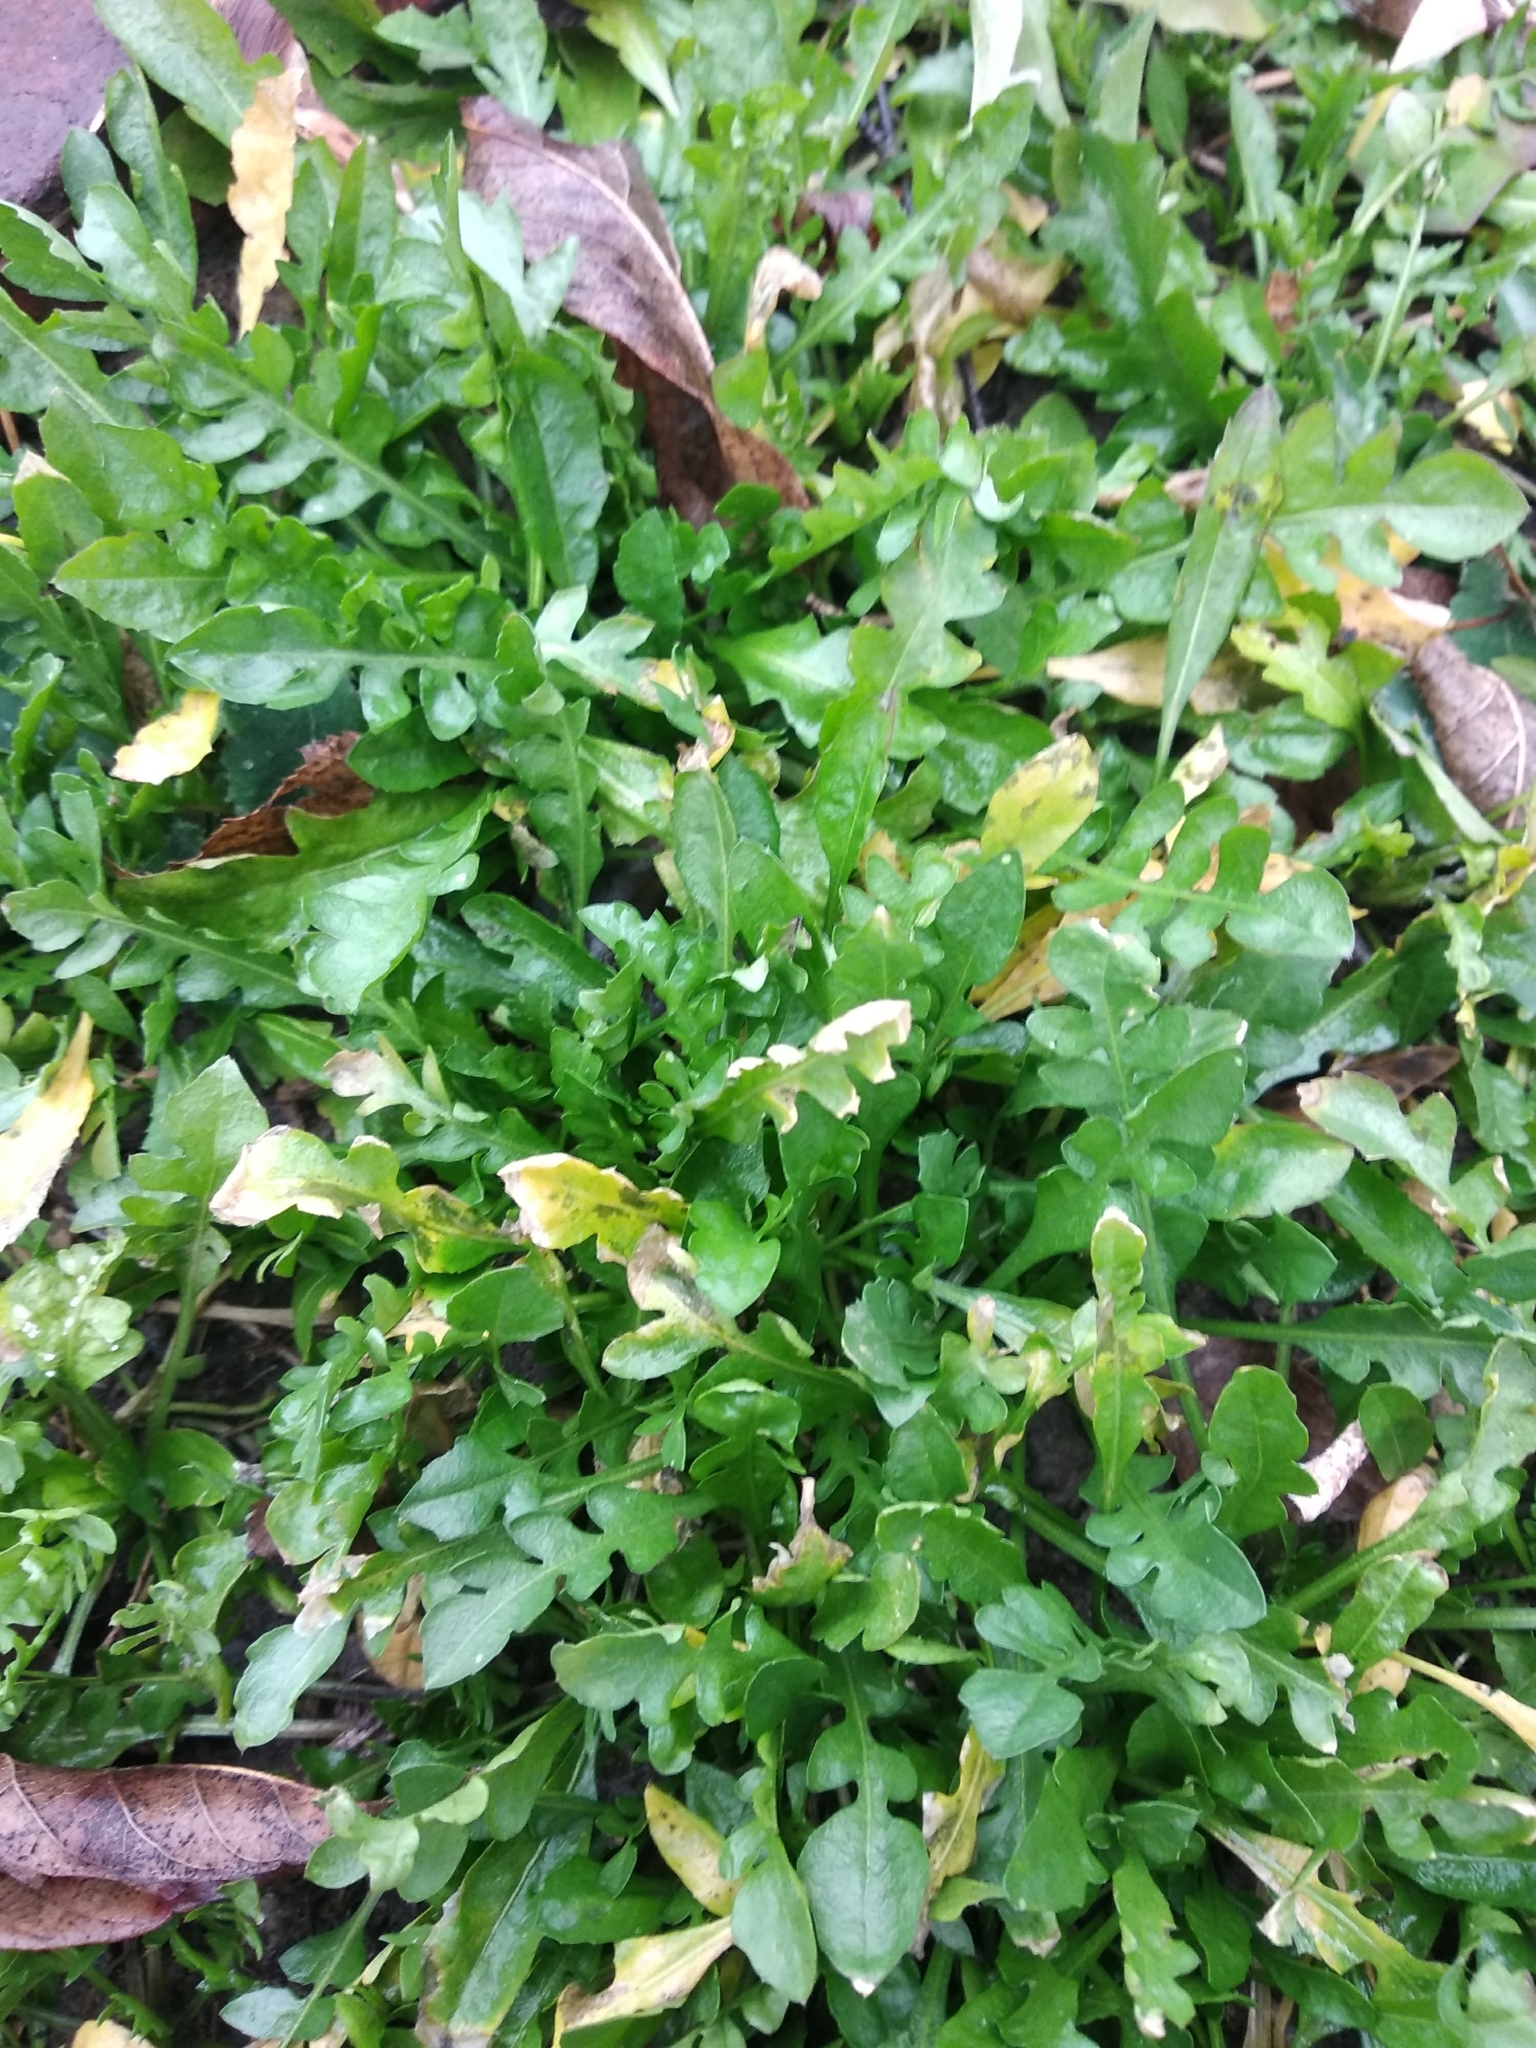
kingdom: Plantae
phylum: Tracheophyta
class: Magnoliopsida
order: Brassicales
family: Brassicaceae
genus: Capsella
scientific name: Capsella bursa-pastoris
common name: Shepherd's purse
